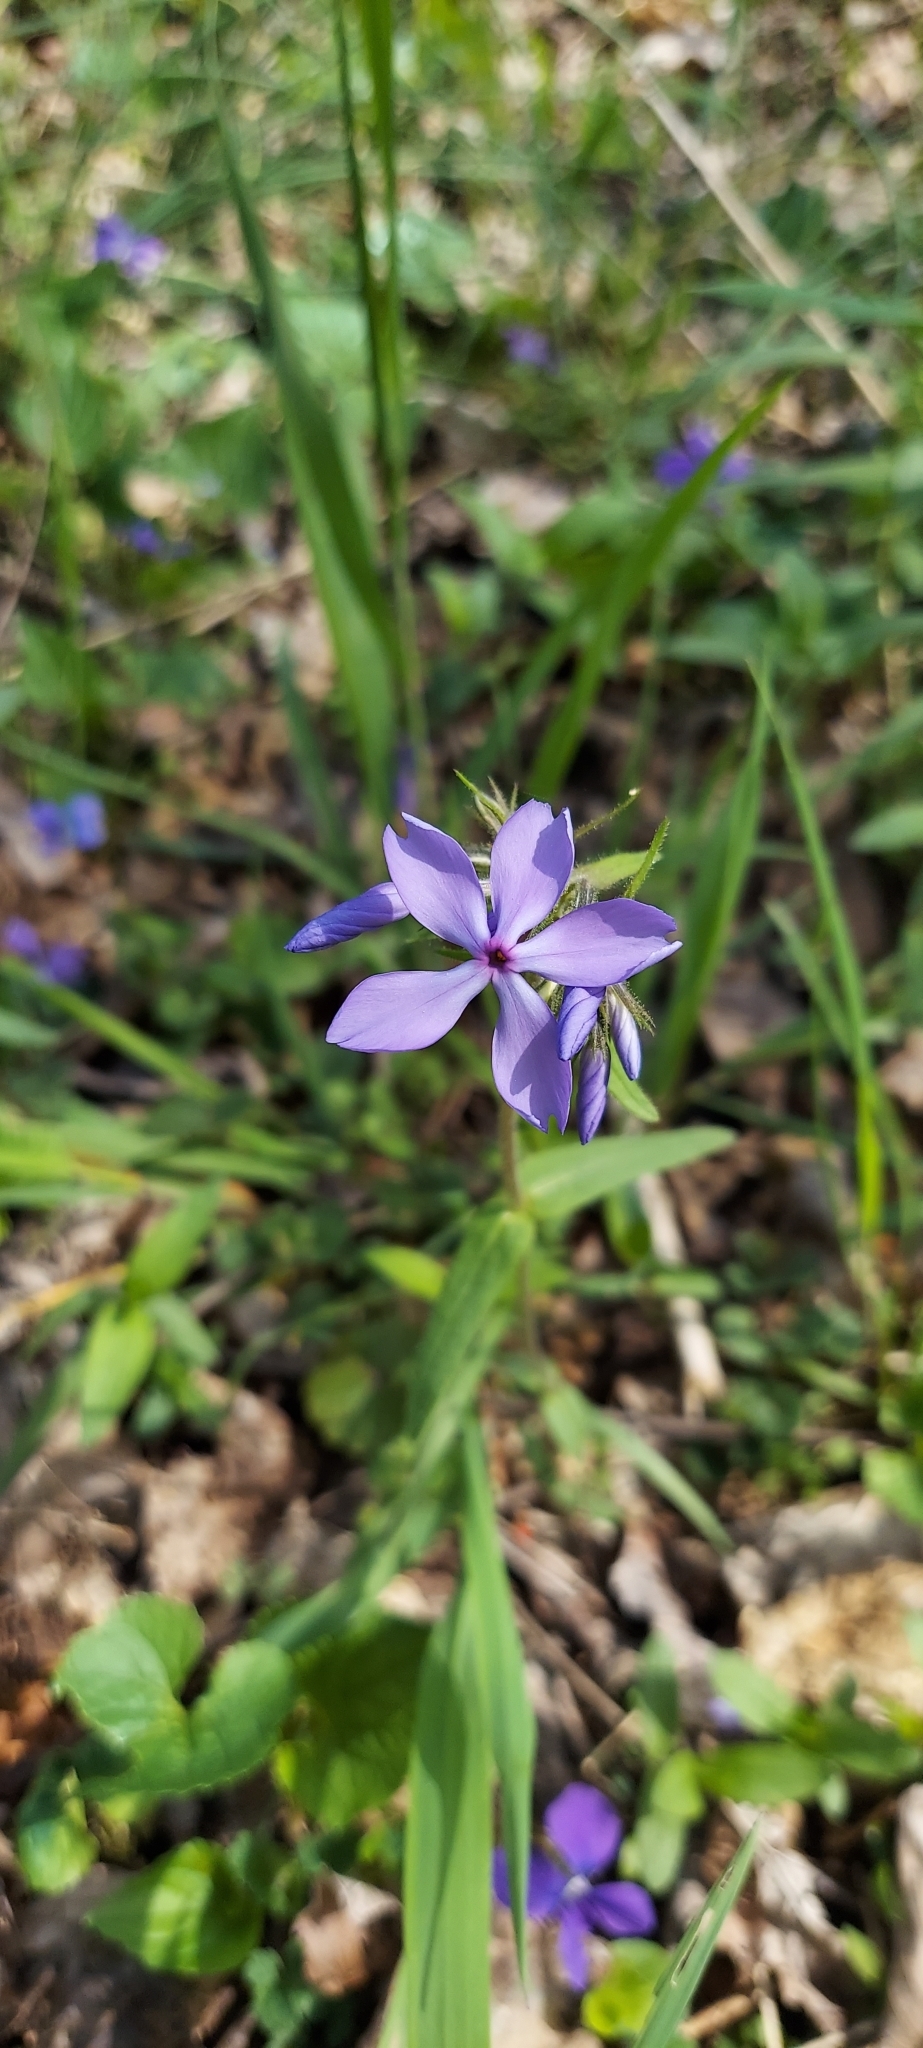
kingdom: Plantae
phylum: Tracheophyta
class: Magnoliopsida
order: Ericales
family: Polemoniaceae
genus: Phlox
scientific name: Phlox divaricata
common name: Blue phlox
